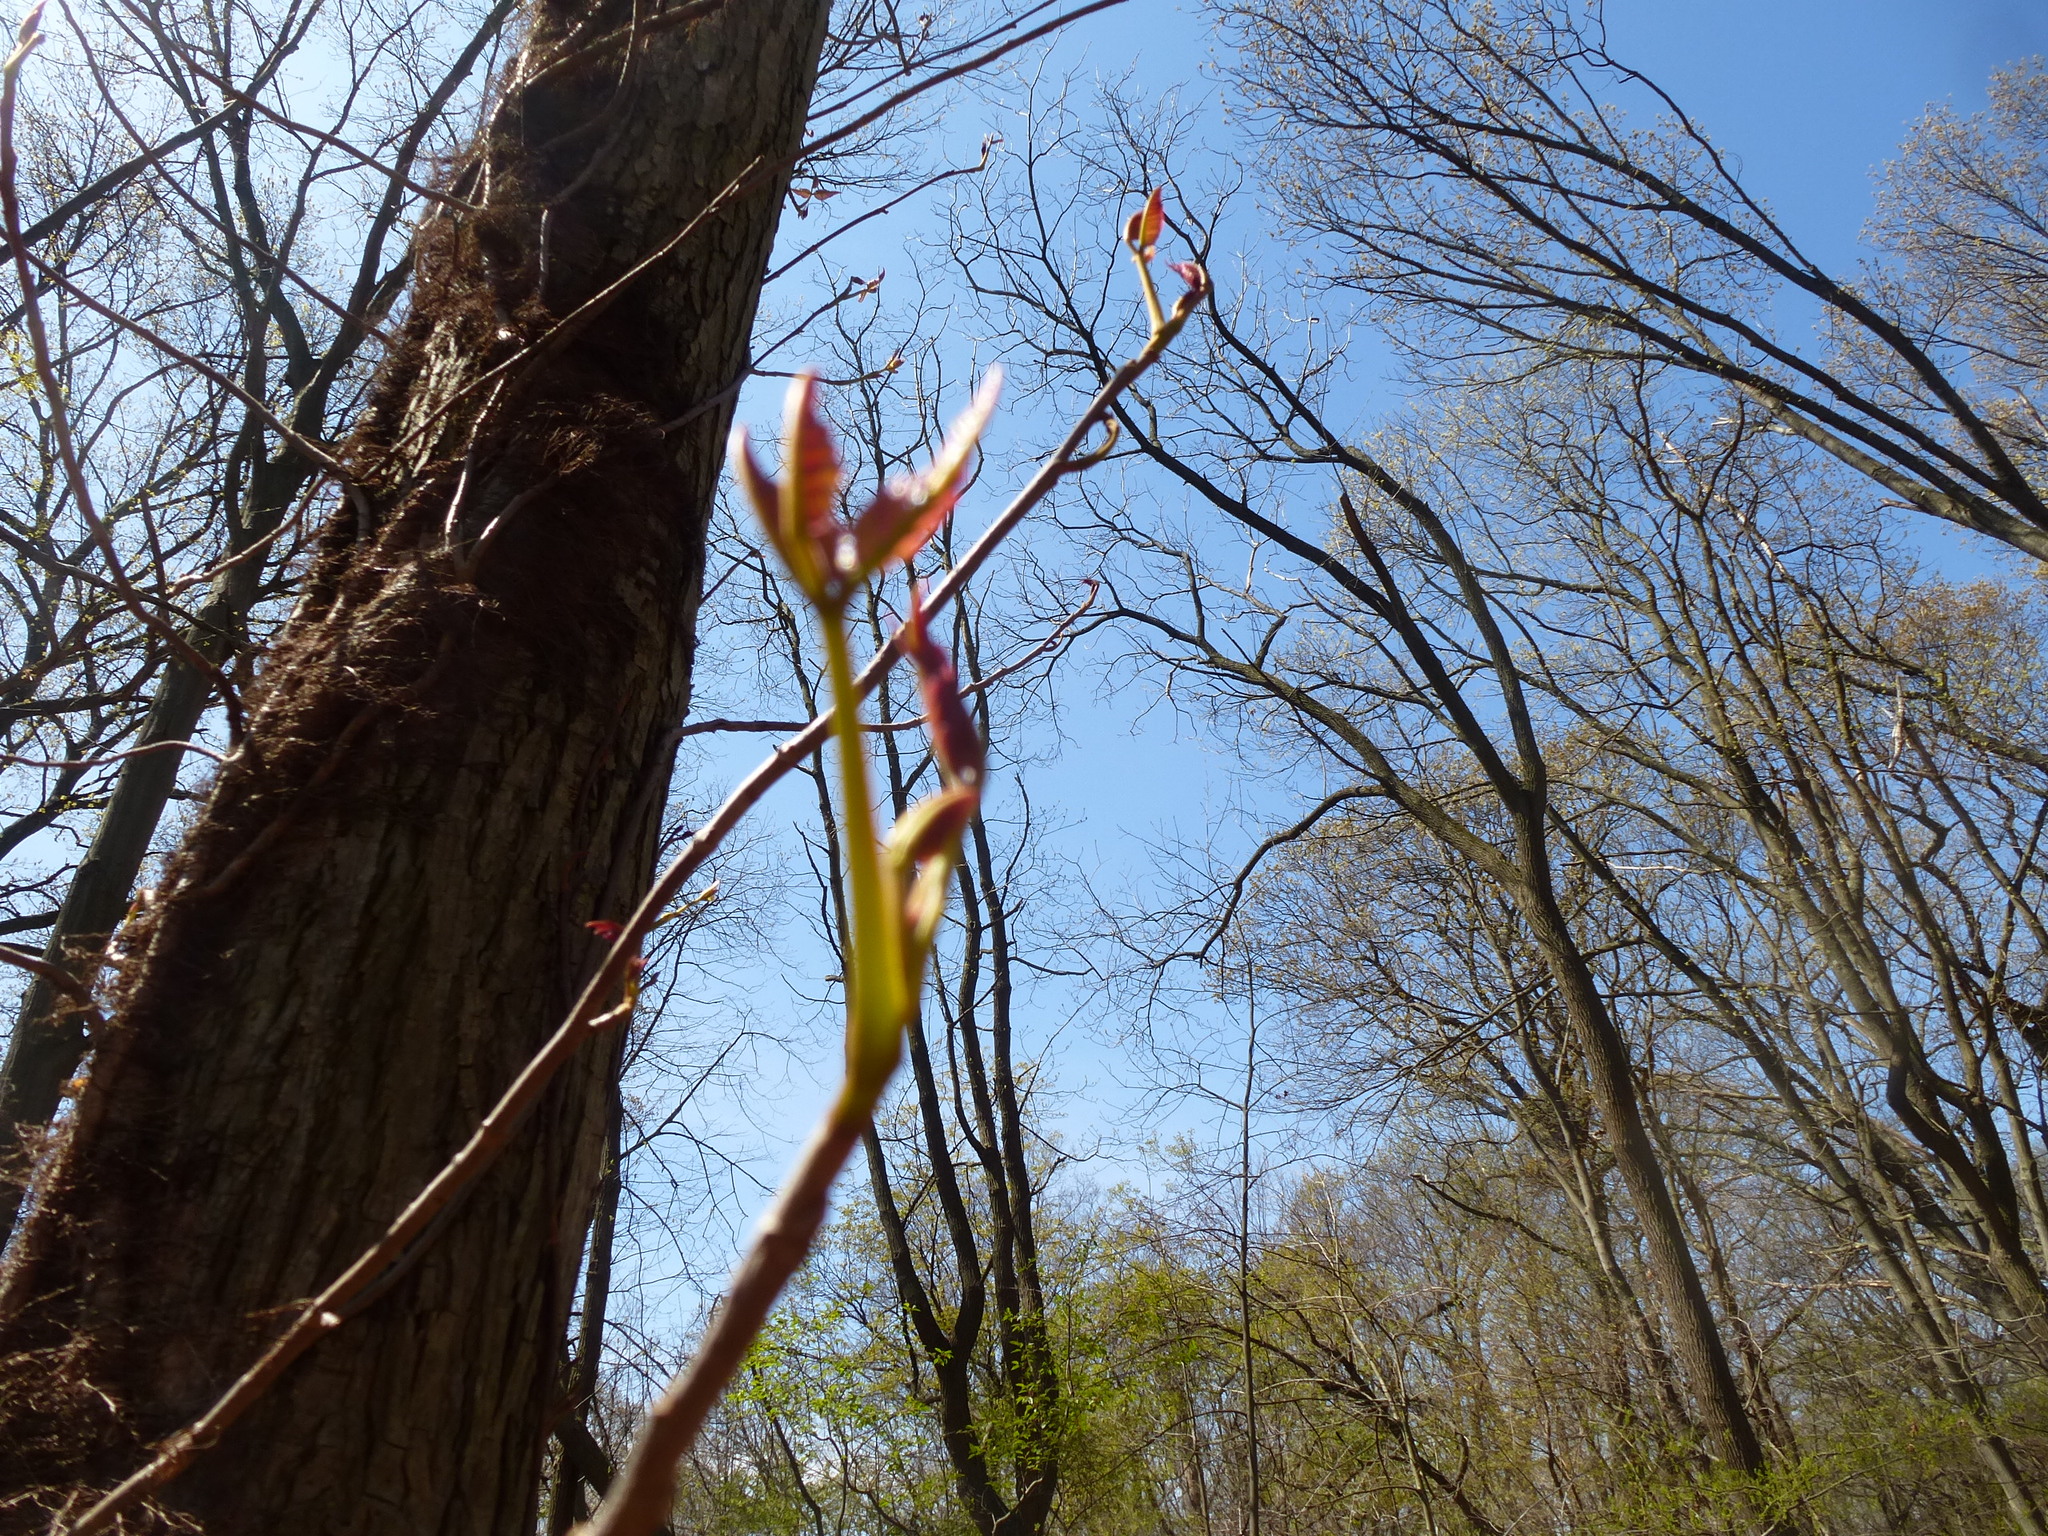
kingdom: Plantae
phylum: Tracheophyta
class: Magnoliopsida
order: Sapindales
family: Anacardiaceae
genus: Toxicodendron
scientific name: Toxicodendron radicans
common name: Poison ivy
